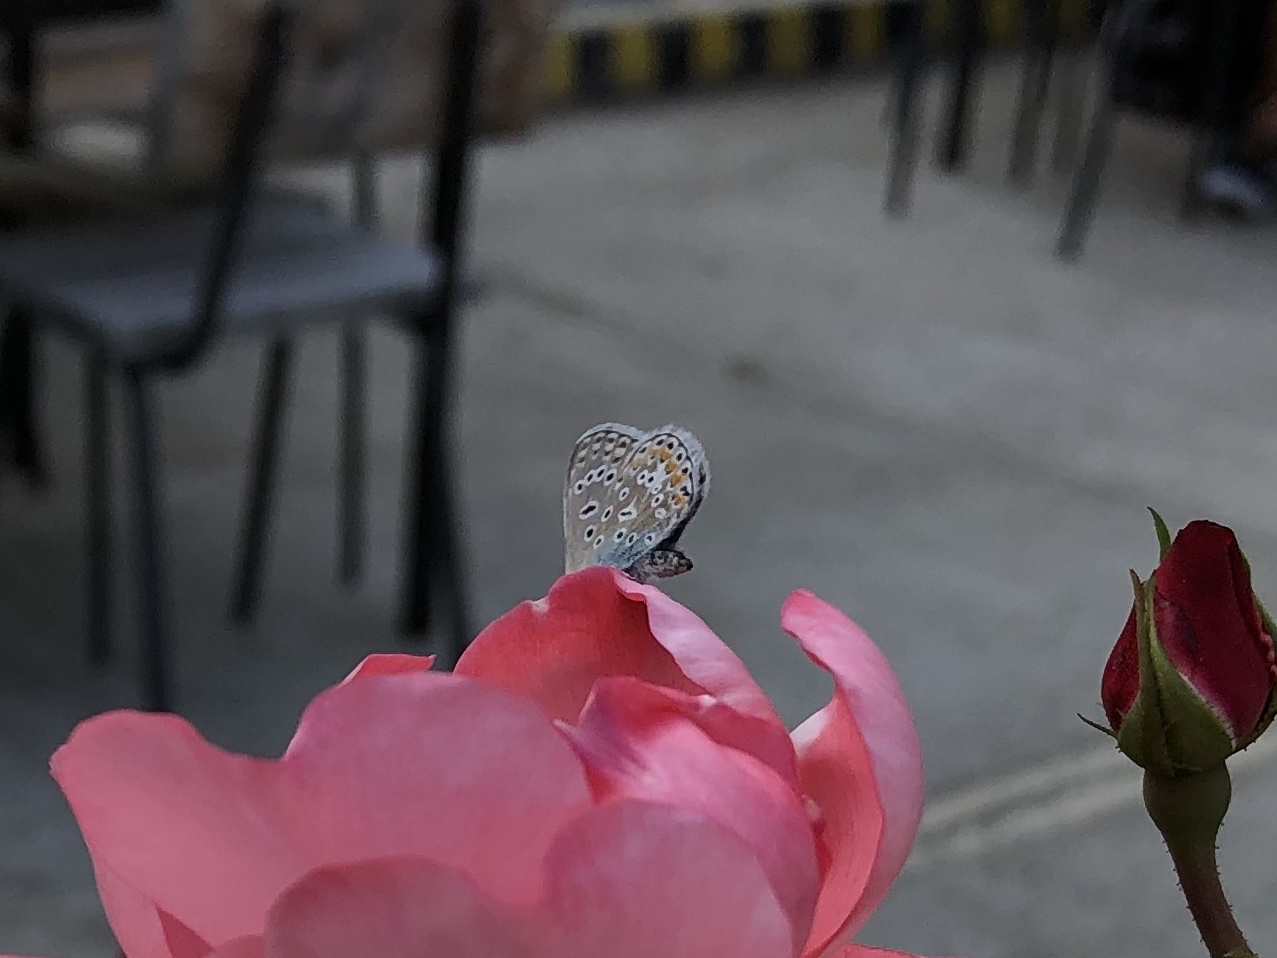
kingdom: Animalia
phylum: Arthropoda
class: Insecta
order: Lepidoptera
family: Lycaenidae
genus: Polyommatus
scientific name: Polyommatus icarus
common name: Common blue
